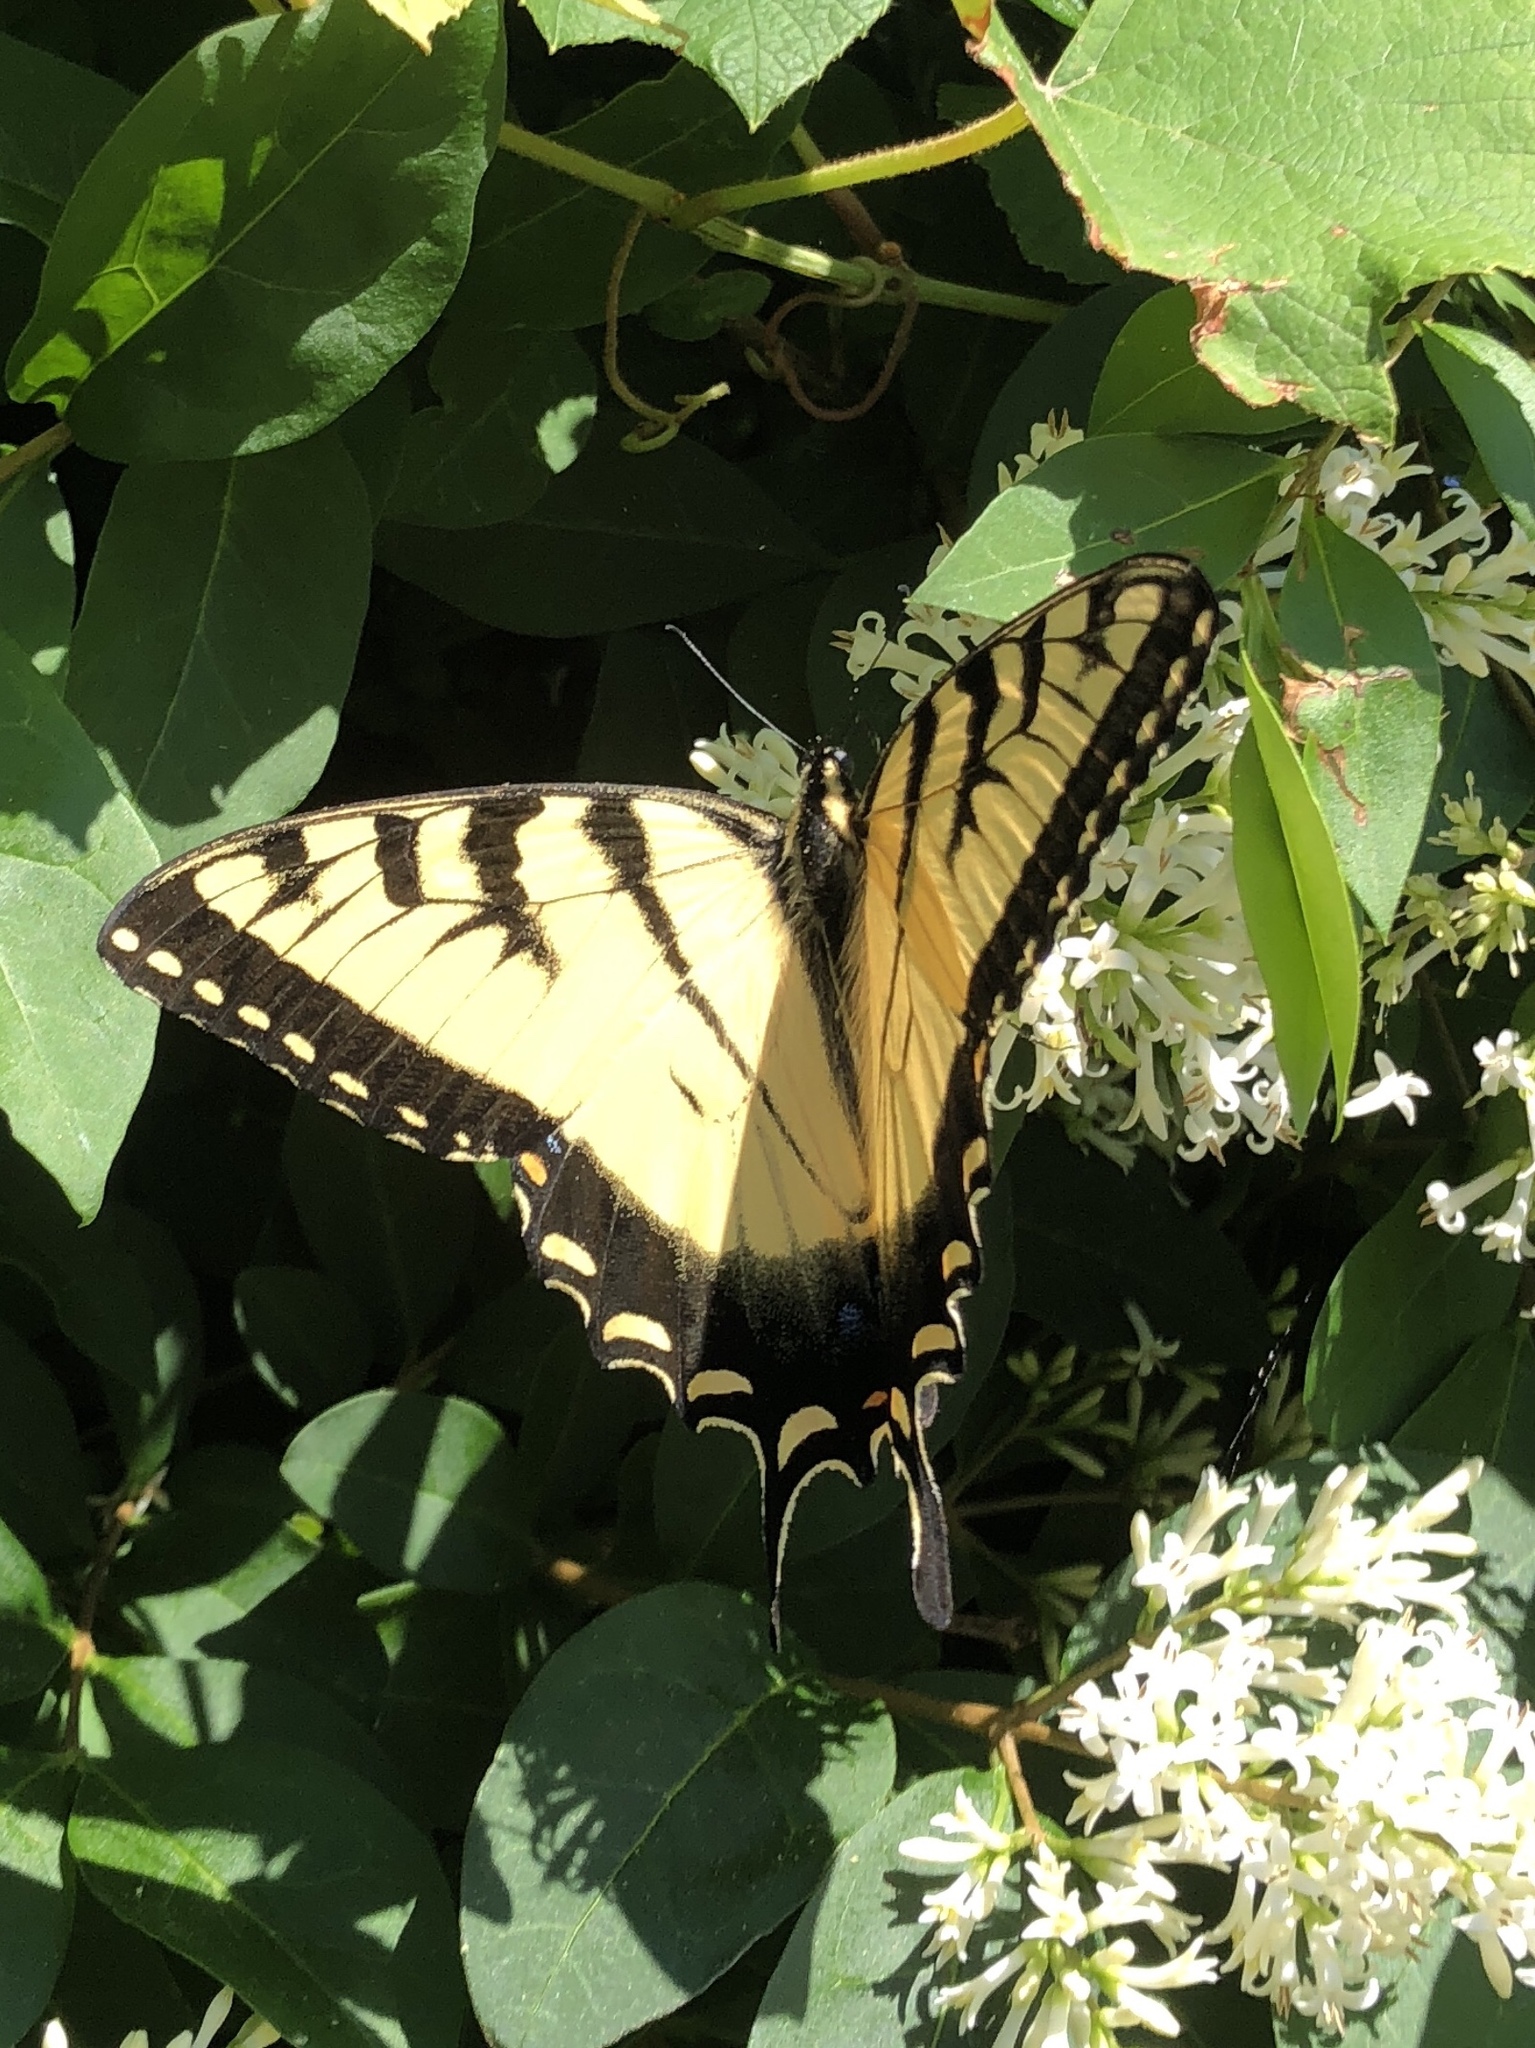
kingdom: Animalia
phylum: Arthropoda
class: Insecta
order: Lepidoptera
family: Papilionidae
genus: Papilio
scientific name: Papilio glaucus
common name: Tiger swallowtail
